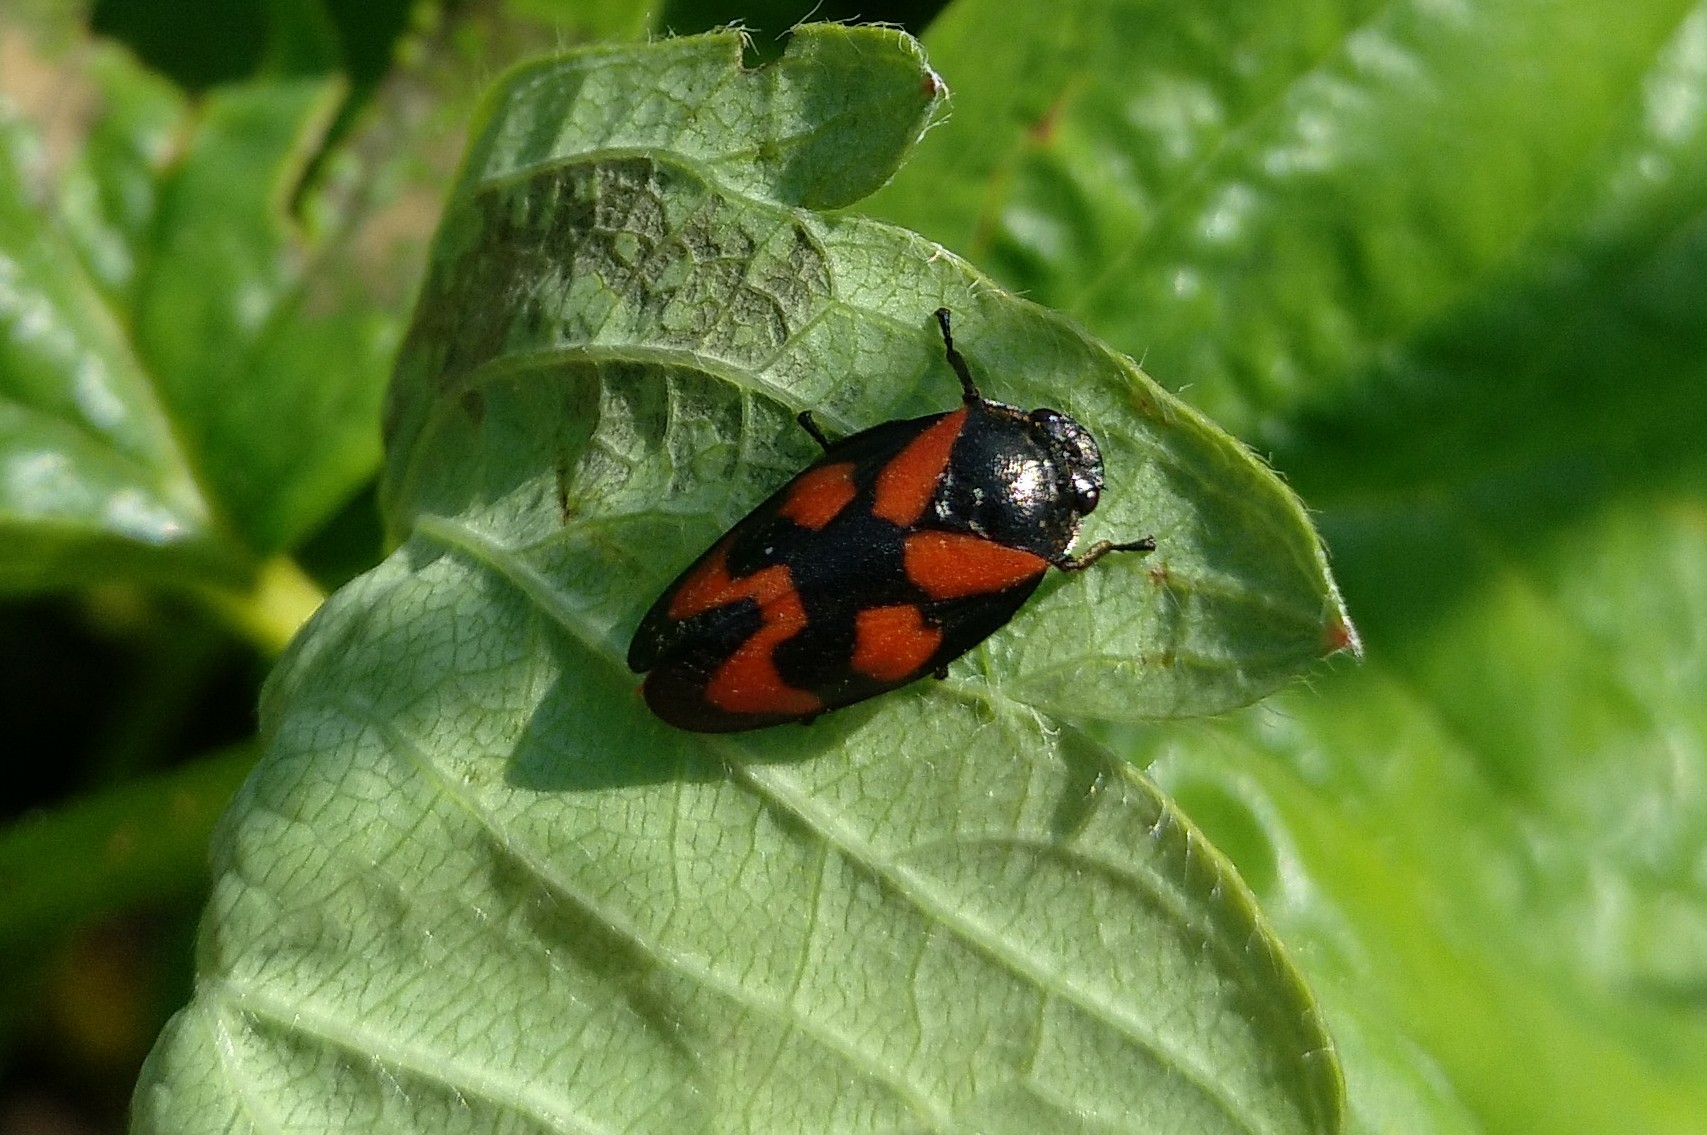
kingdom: Animalia
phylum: Arthropoda
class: Insecta
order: Hemiptera
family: Cercopidae
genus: Cercopis
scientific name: Cercopis vulnerata
